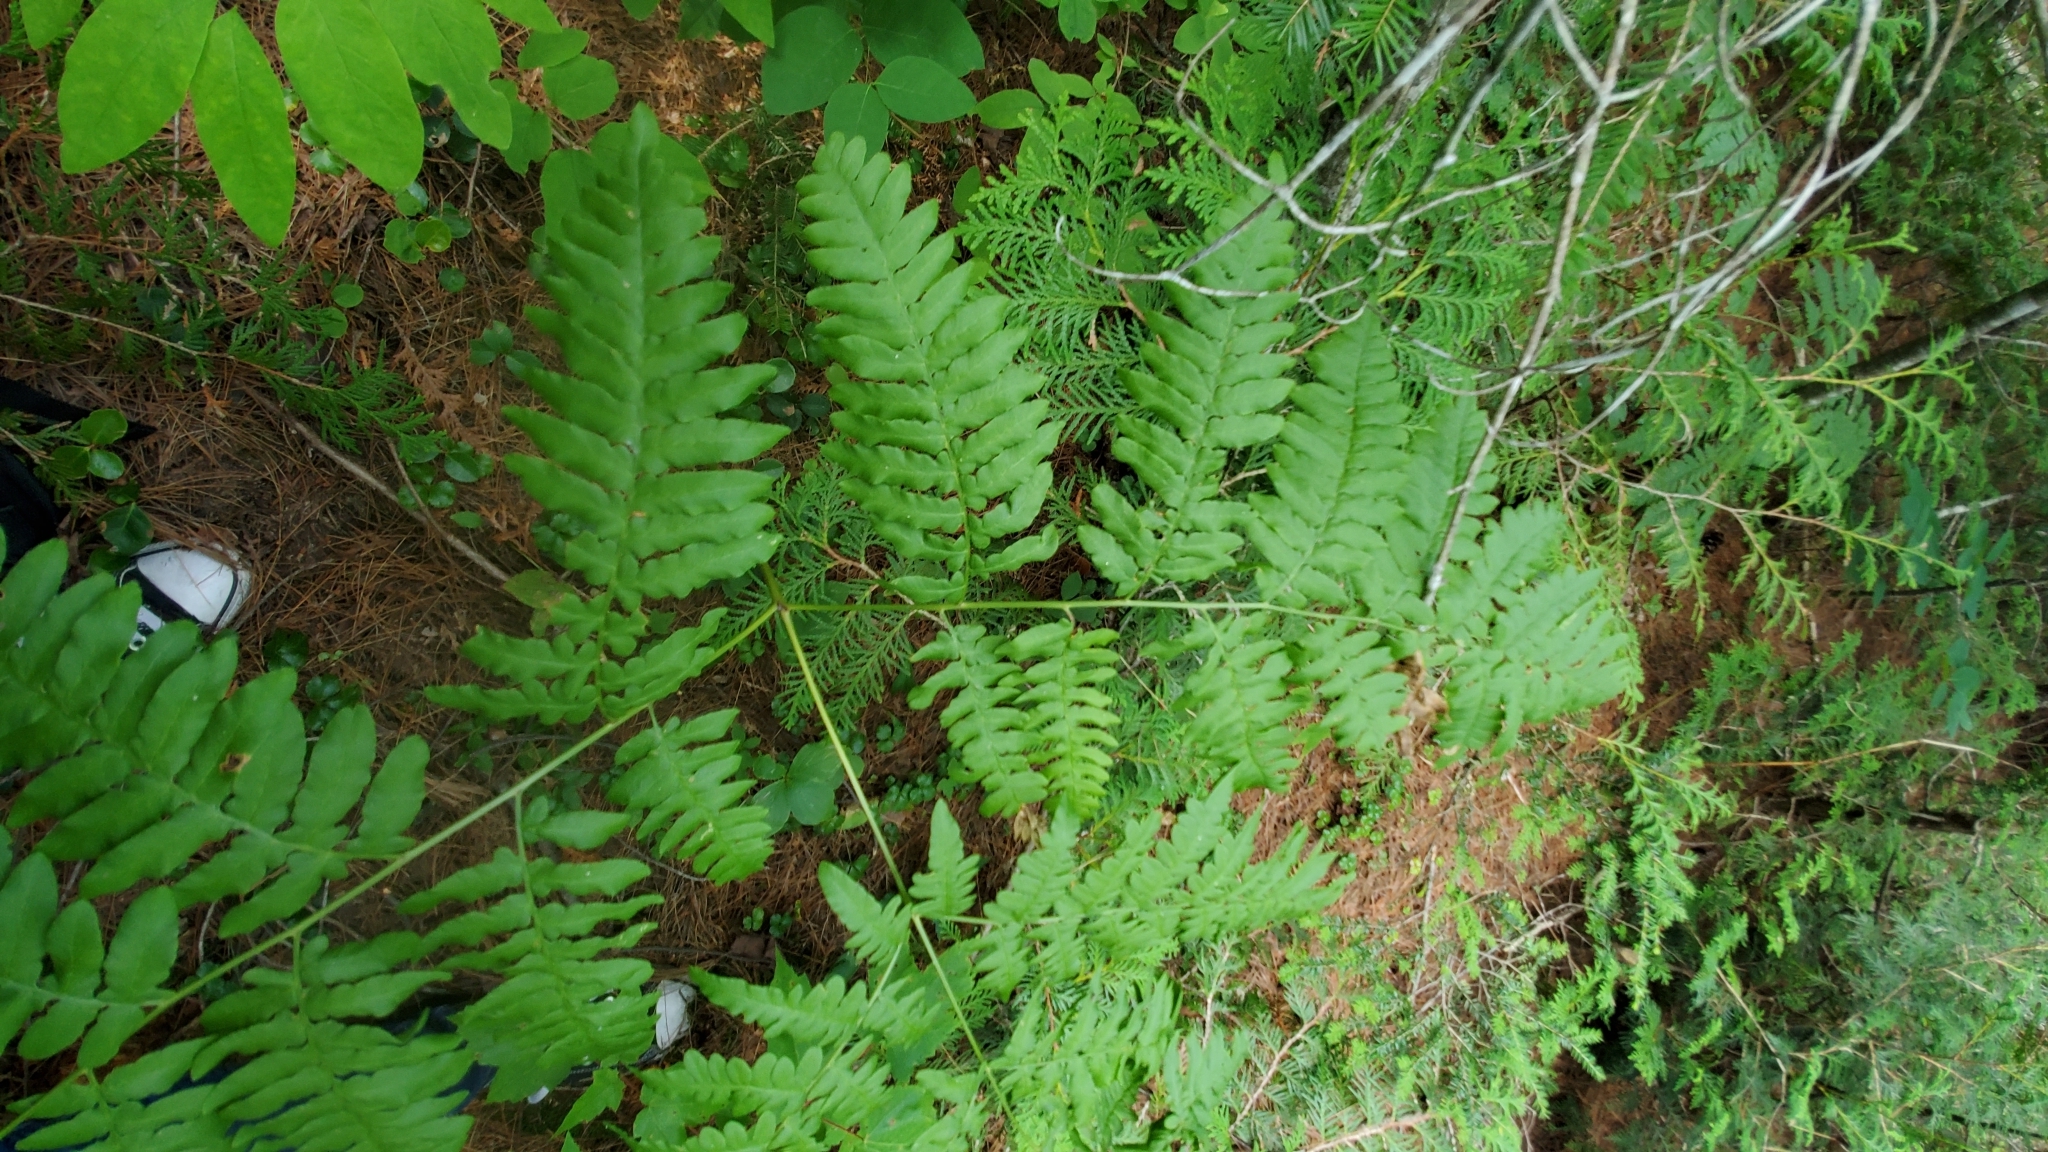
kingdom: Plantae
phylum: Tracheophyta
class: Polypodiopsida
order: Polypodiales
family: Dennstaedtiaceae
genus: Pteridium
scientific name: Pteridium aquilinum
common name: Bracken
